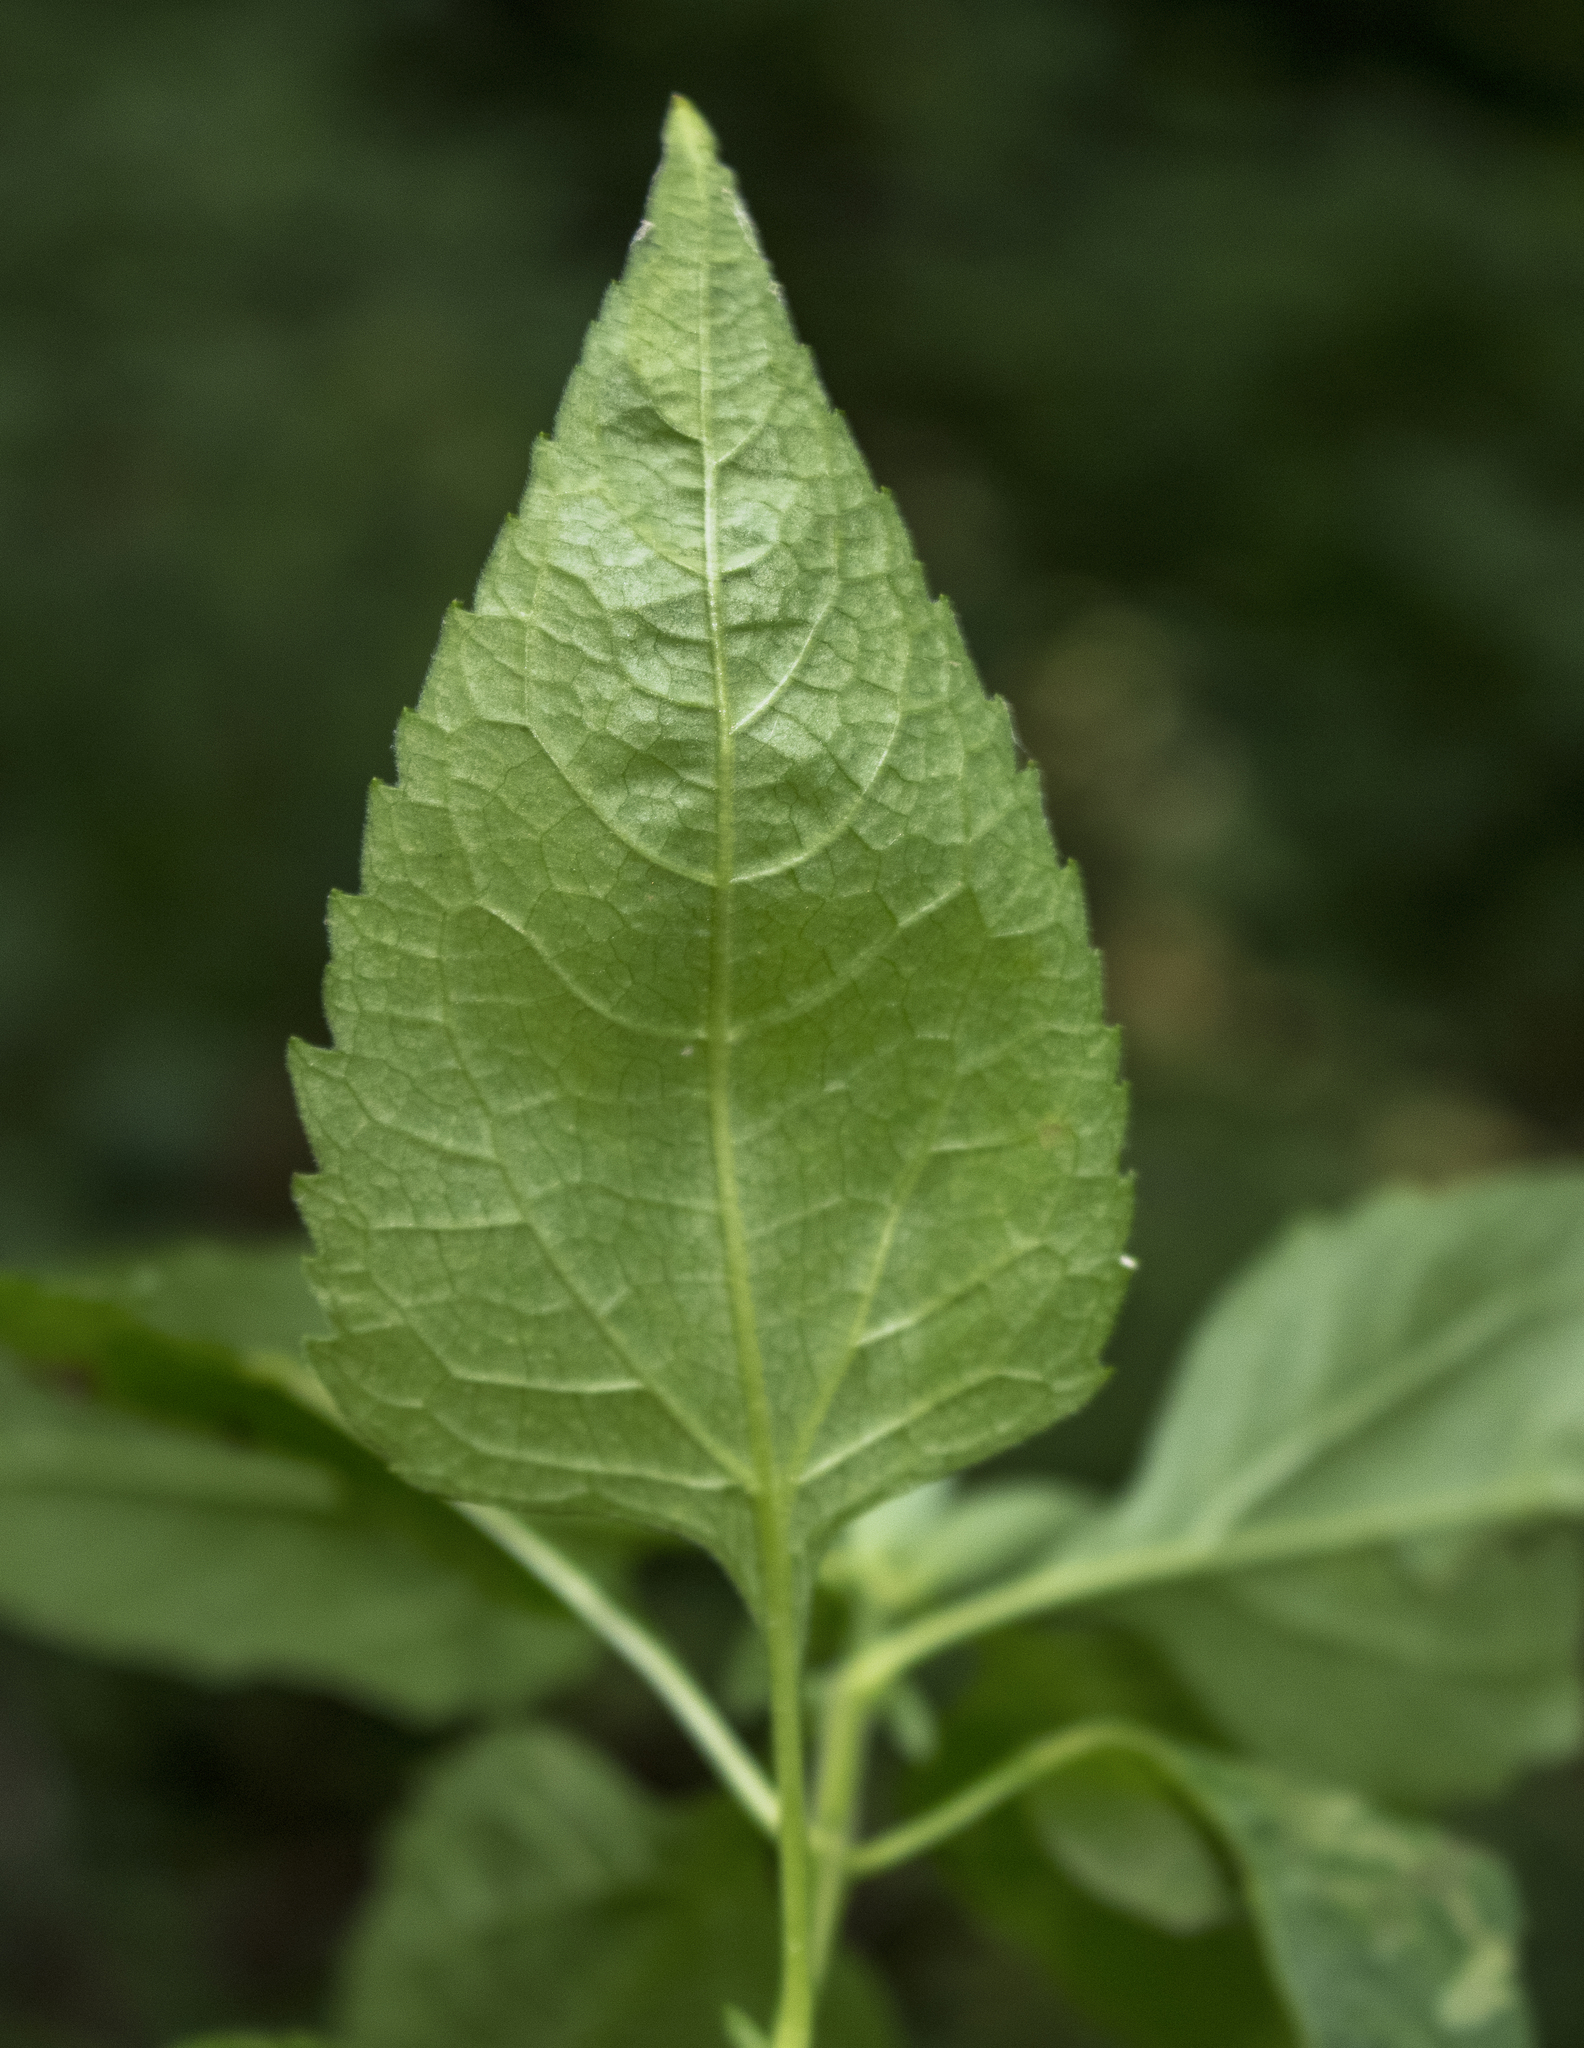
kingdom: Plantae
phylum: Tracheophyta
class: Magnoliopsida
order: Asterales
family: Asteraceae
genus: Heliopsis
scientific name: Heliopsis helianthoides
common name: False sunflower
